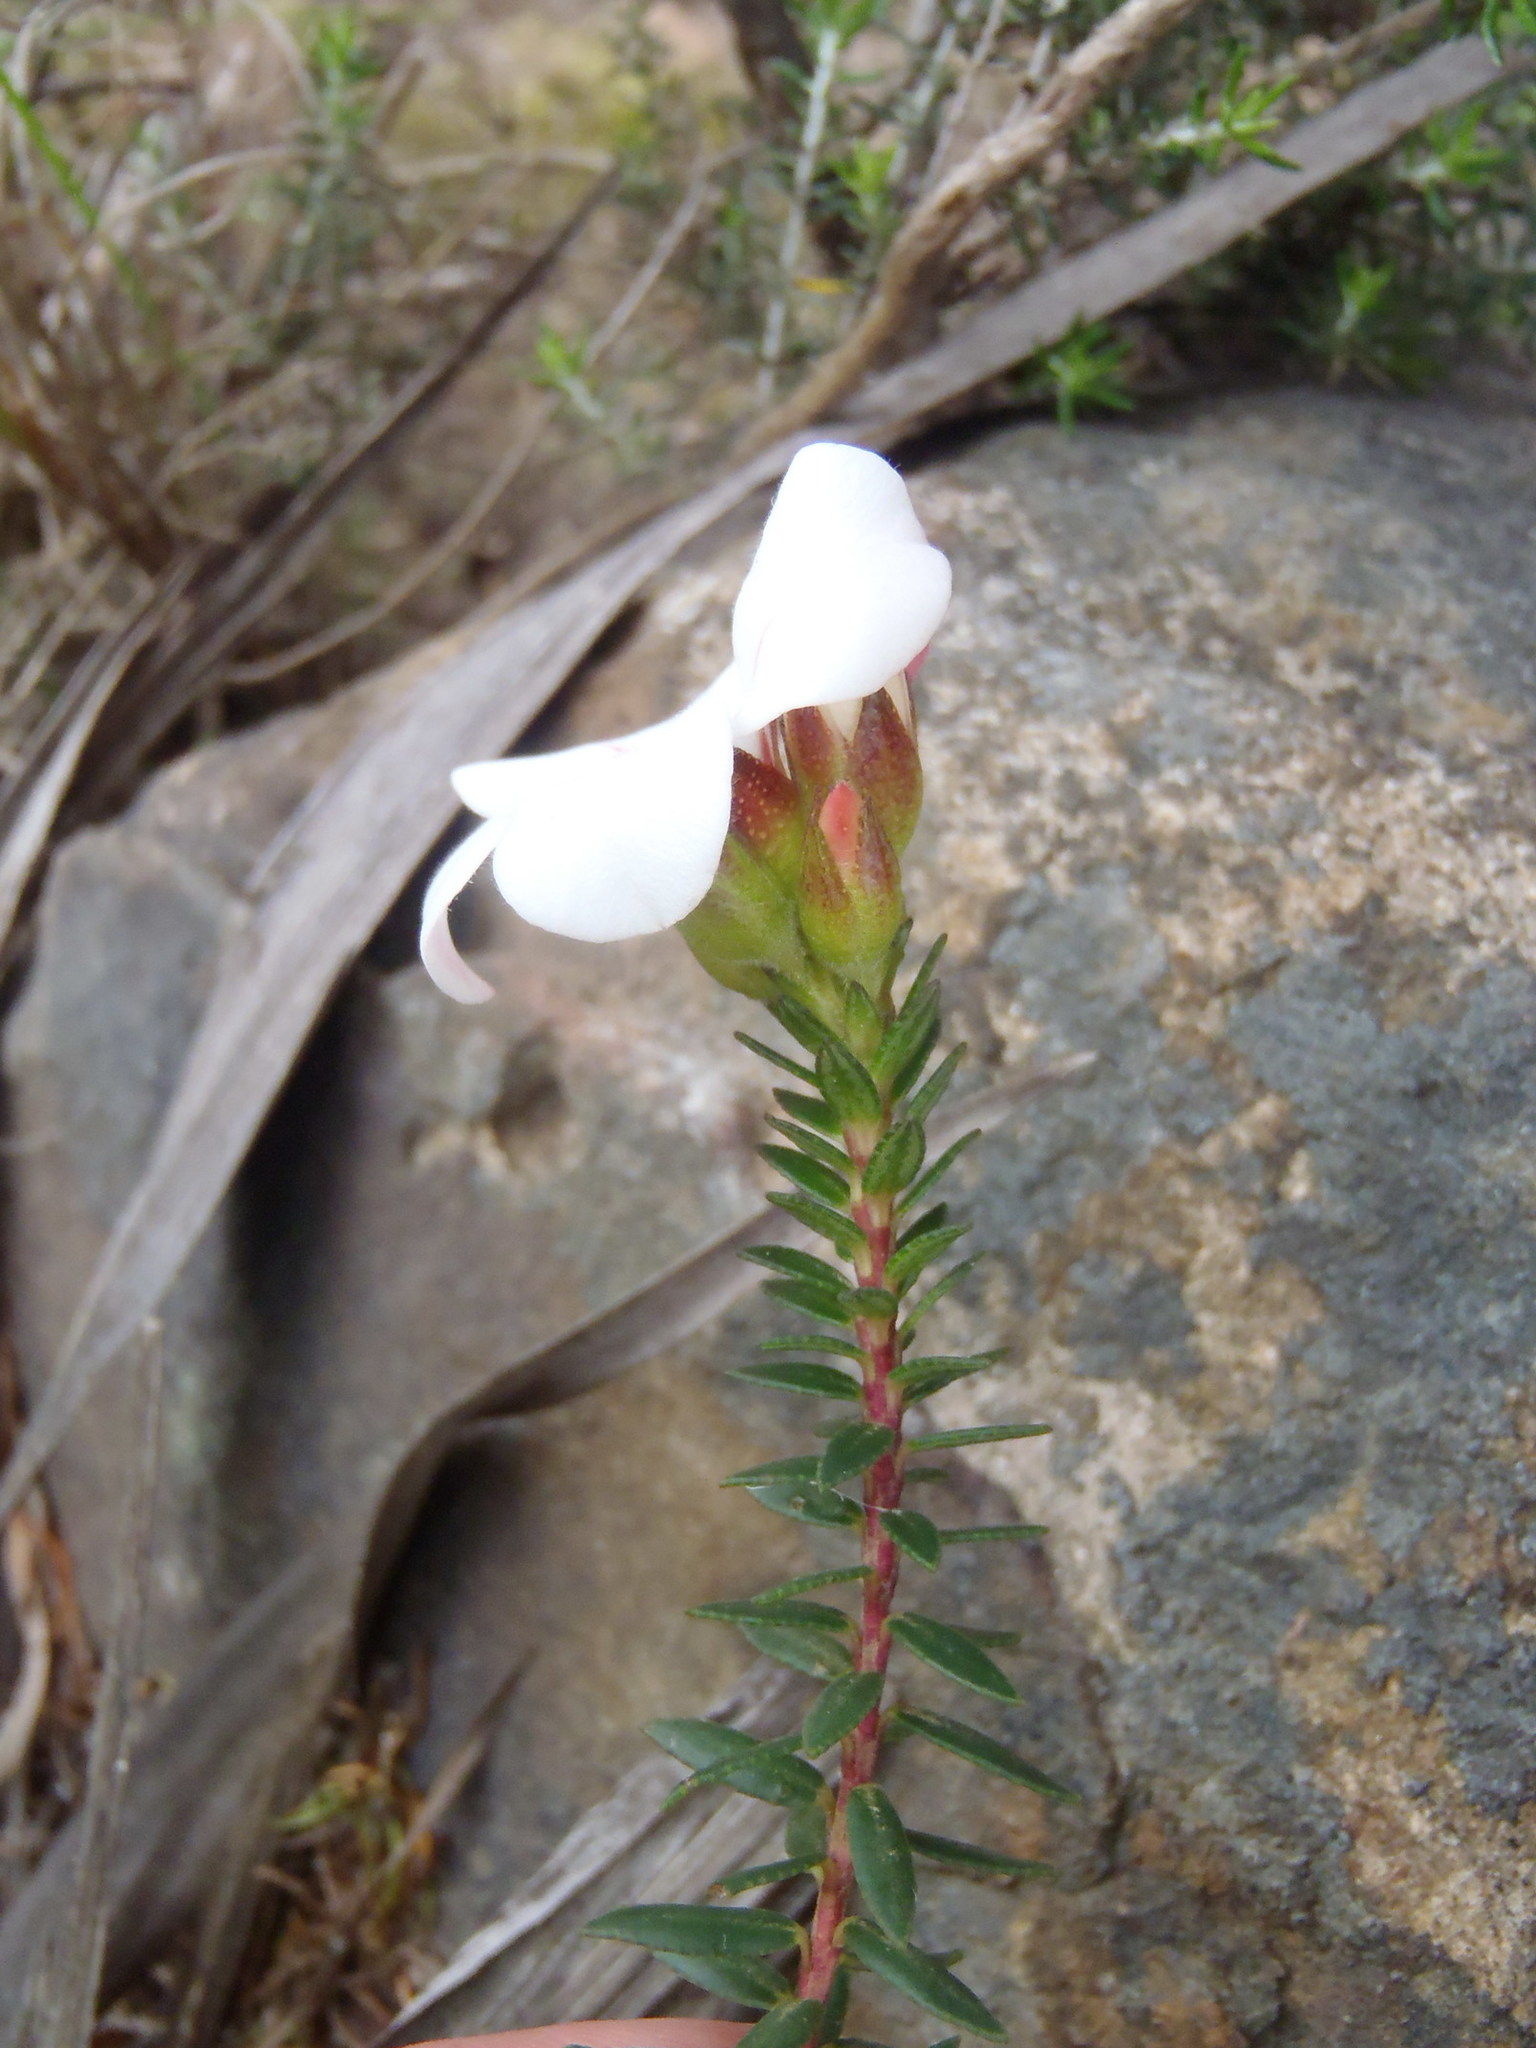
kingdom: Plantae
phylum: Tracheophyta
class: Magnoliopsida
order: Sapindales
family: Rutaceae
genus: Adenandra
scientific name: Adenandra villosa
